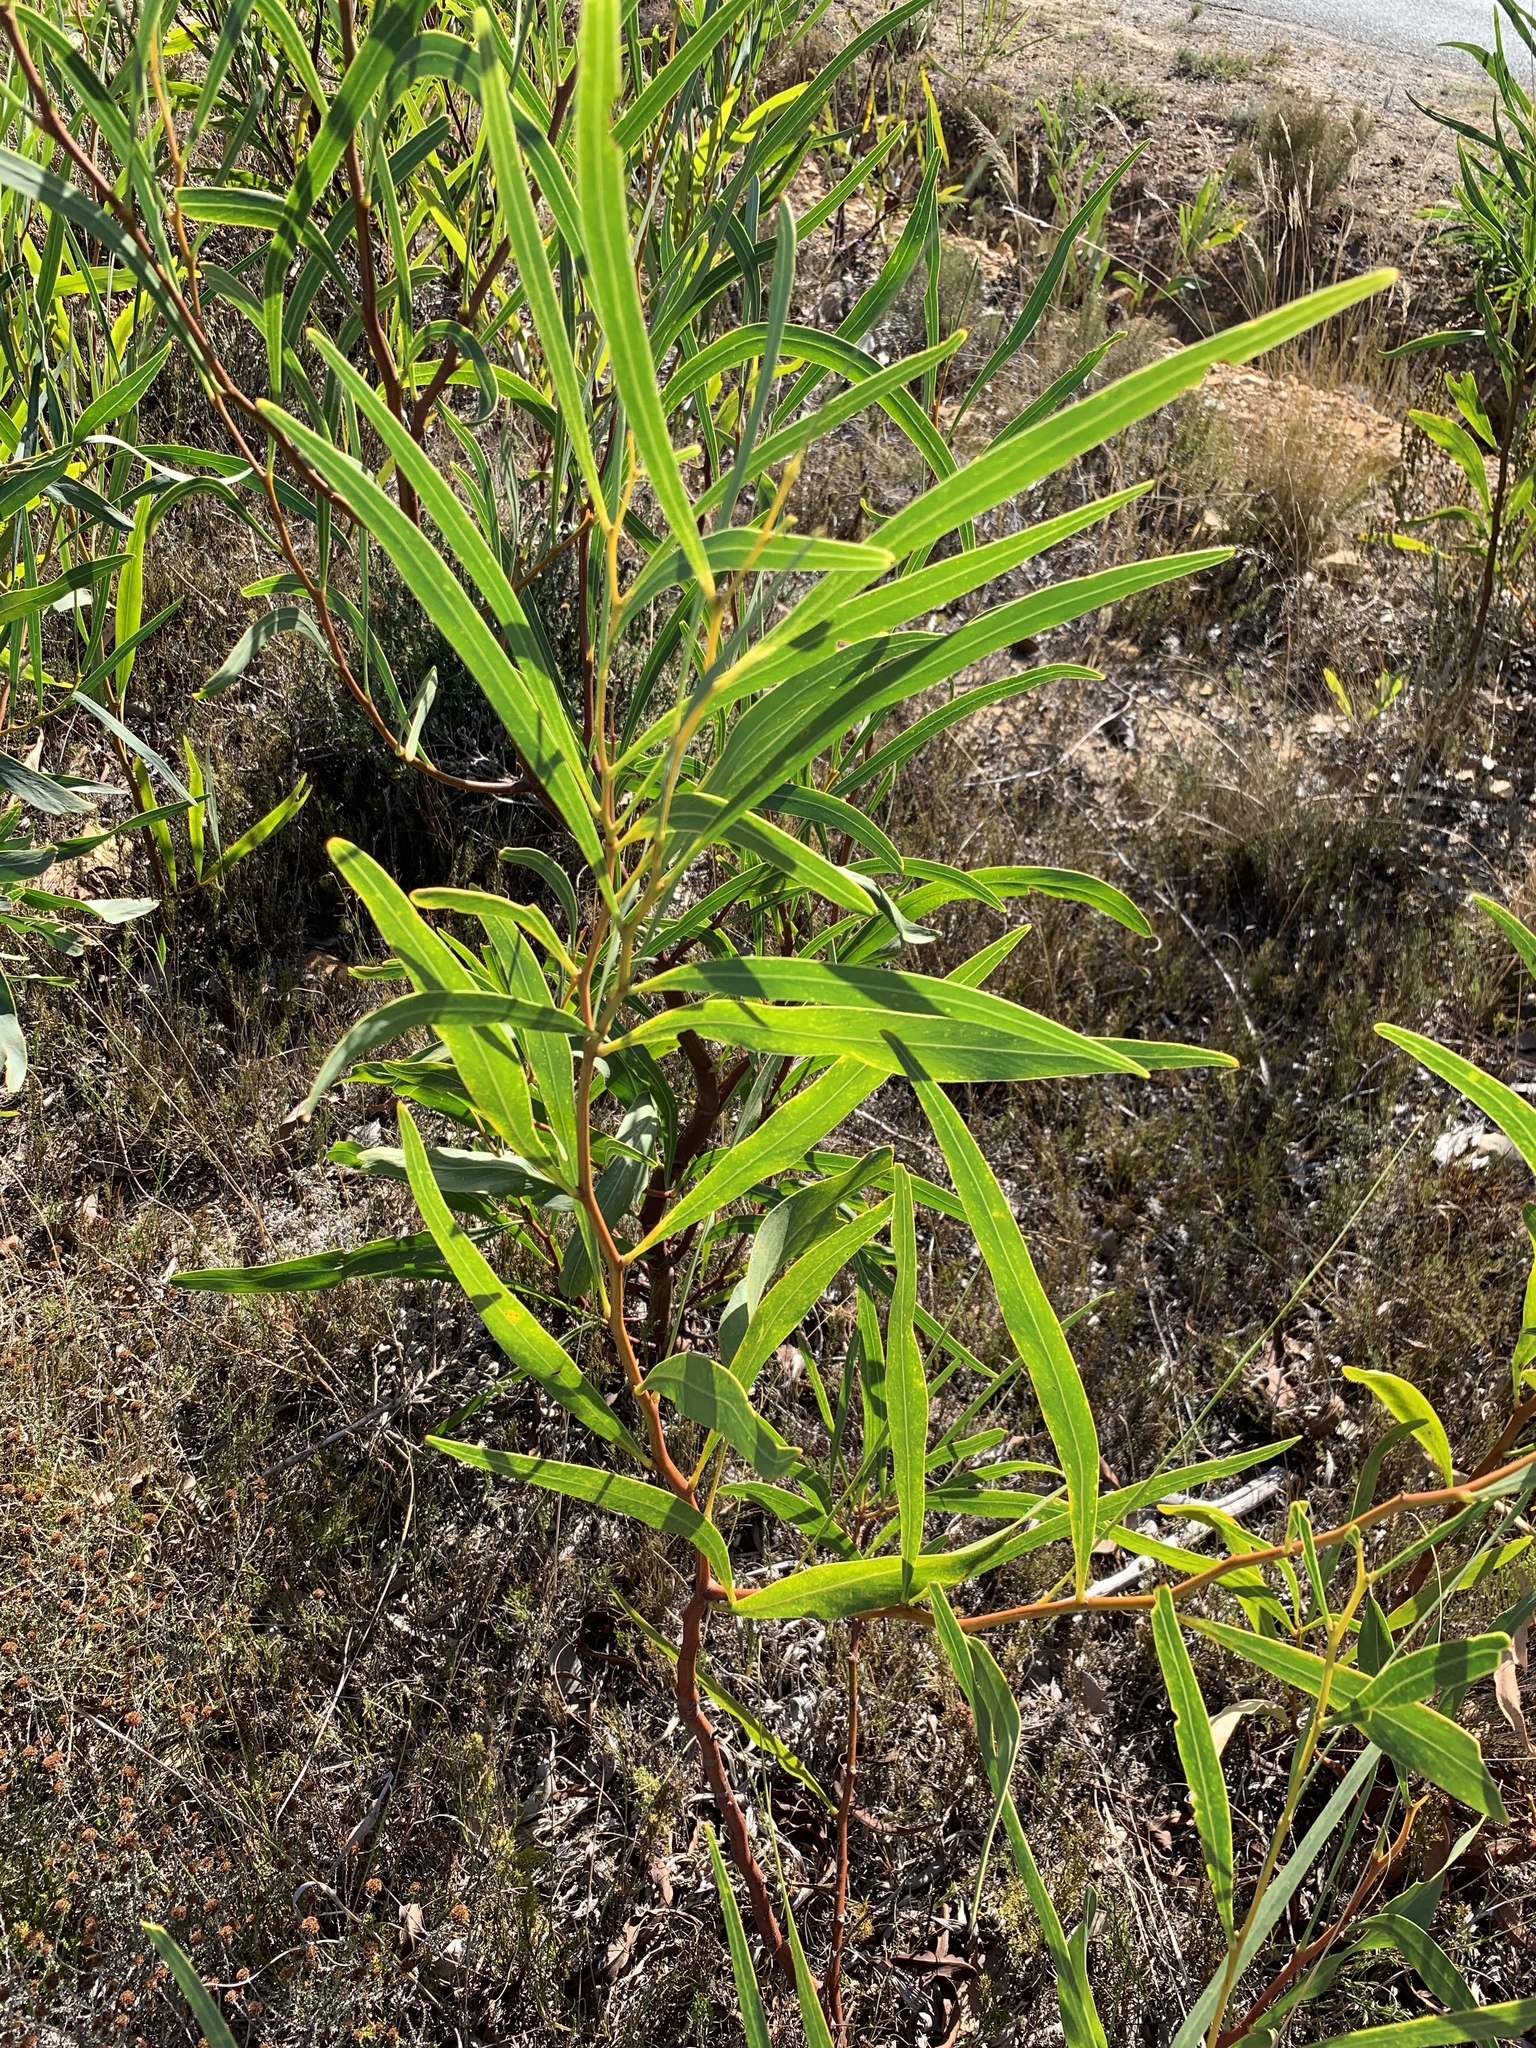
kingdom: Plantae
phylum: Tracheophyta
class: Magnoliopsida
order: Fabales
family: Fabaceae
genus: Acacia
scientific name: Acacia saligna
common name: Orange wattle
